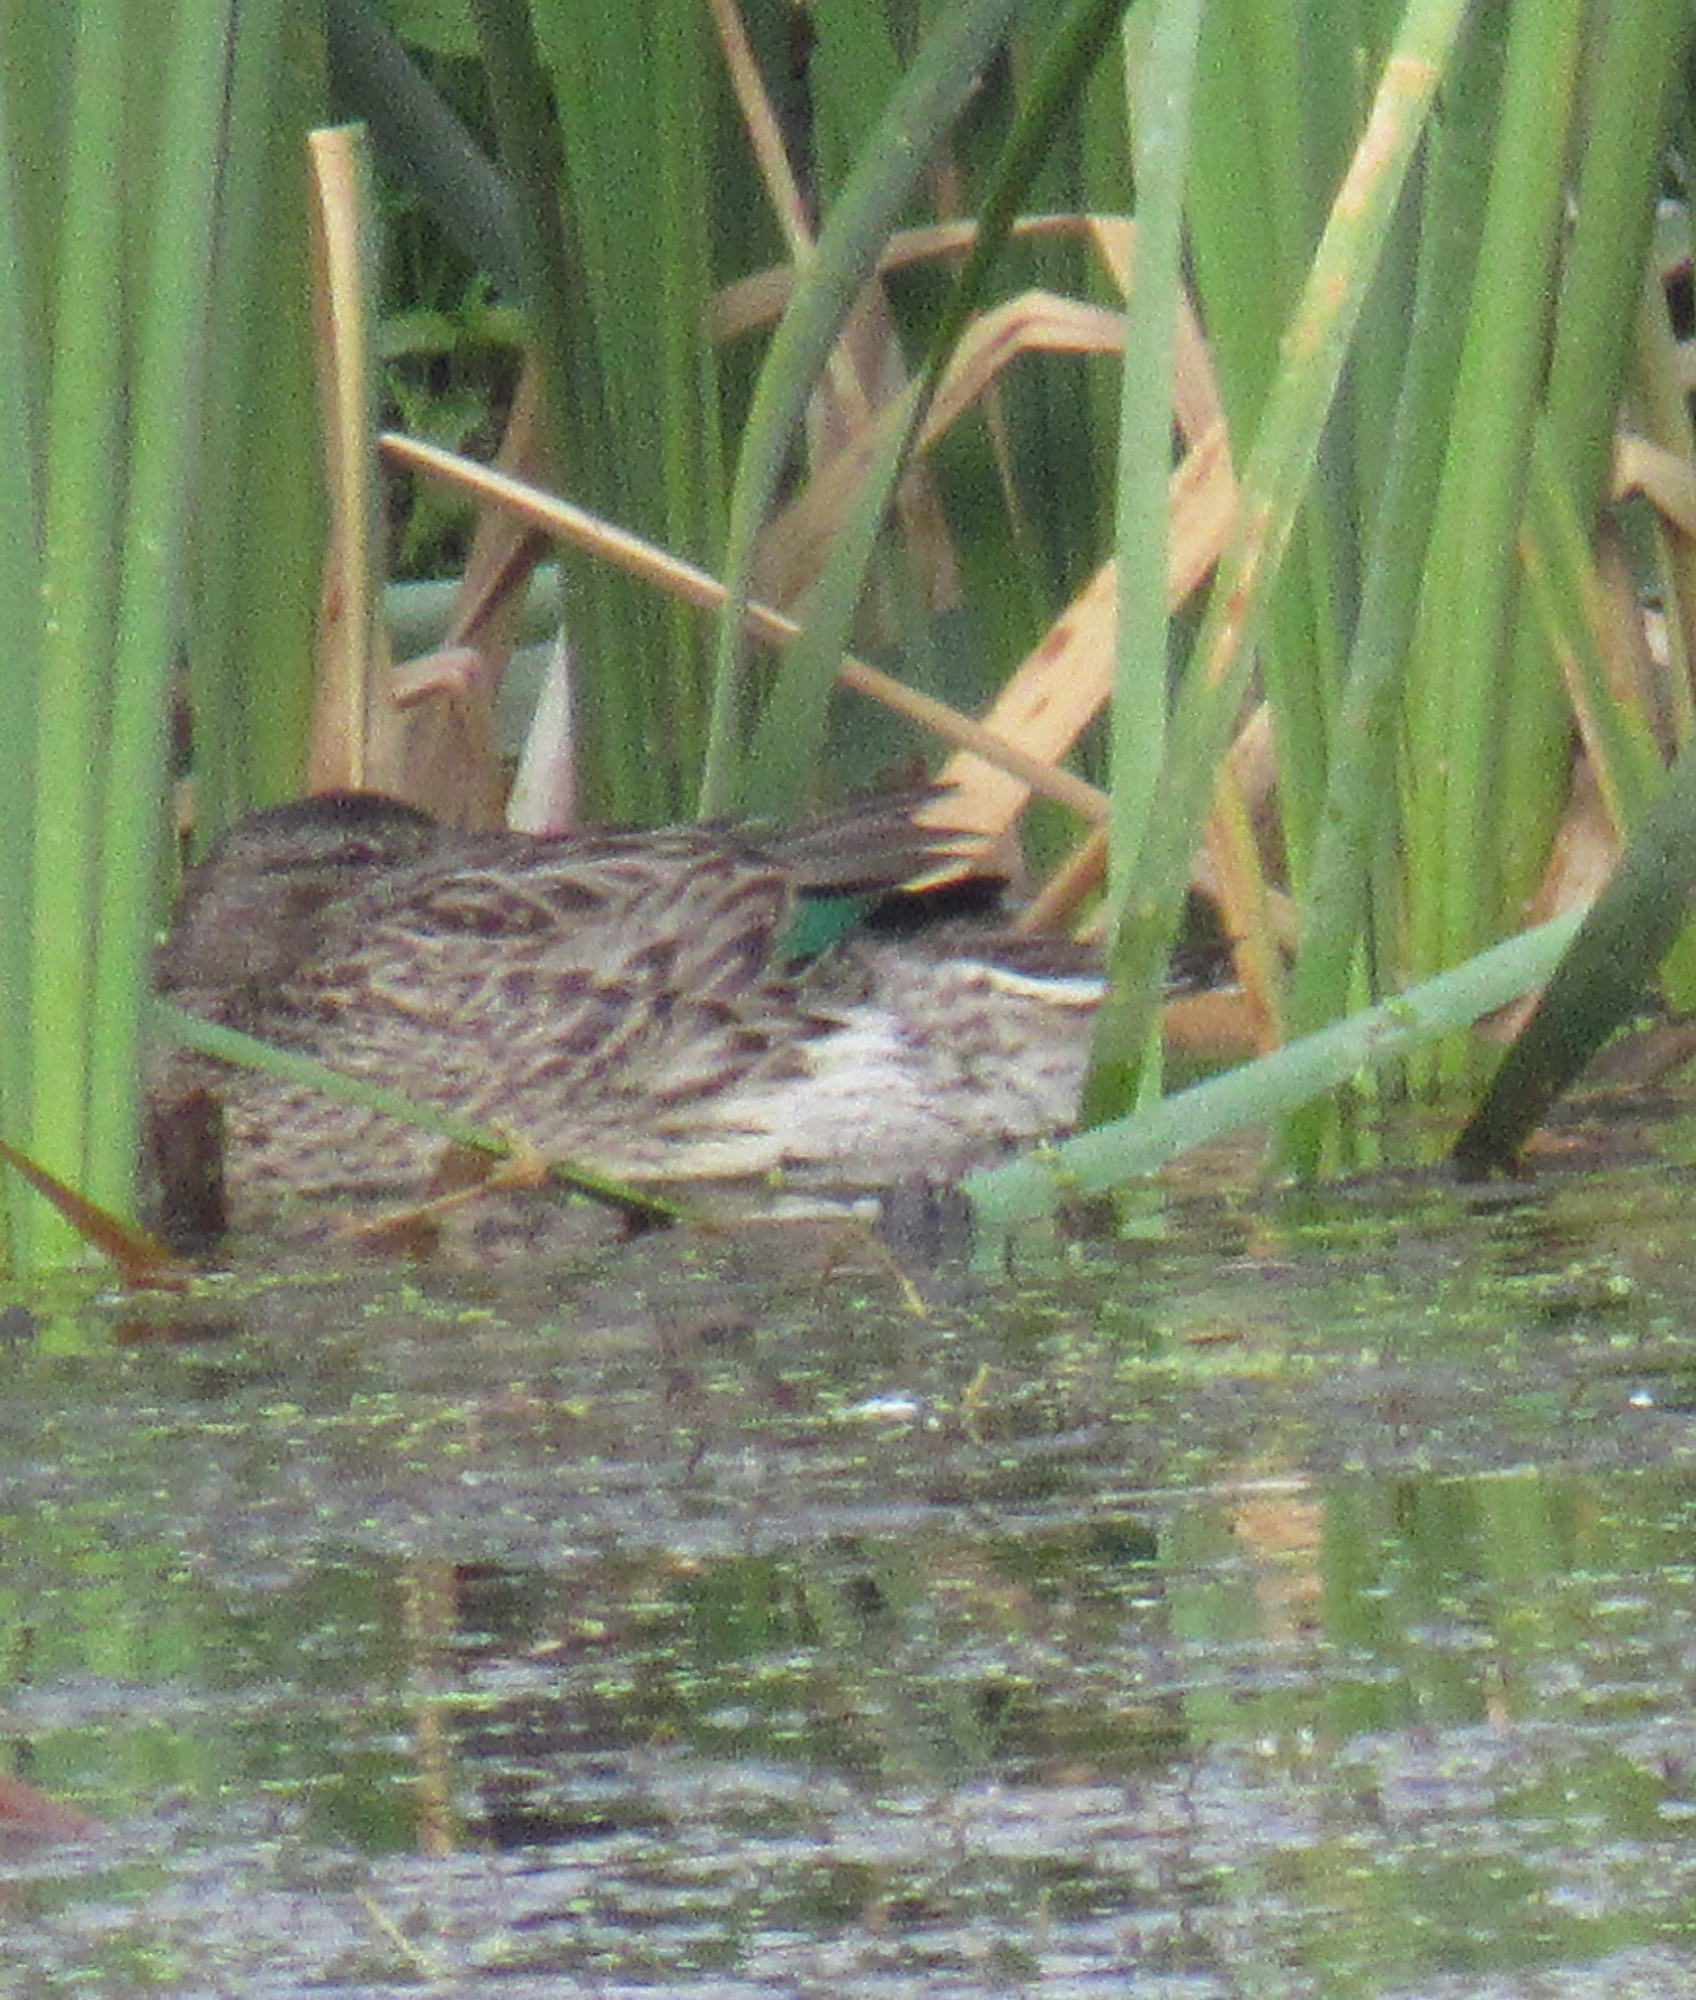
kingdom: Animalia
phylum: Chordata
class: Aves
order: Anseriformes
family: Anatidae
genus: Anas
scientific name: Anas crecca
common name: Eurasian teal
